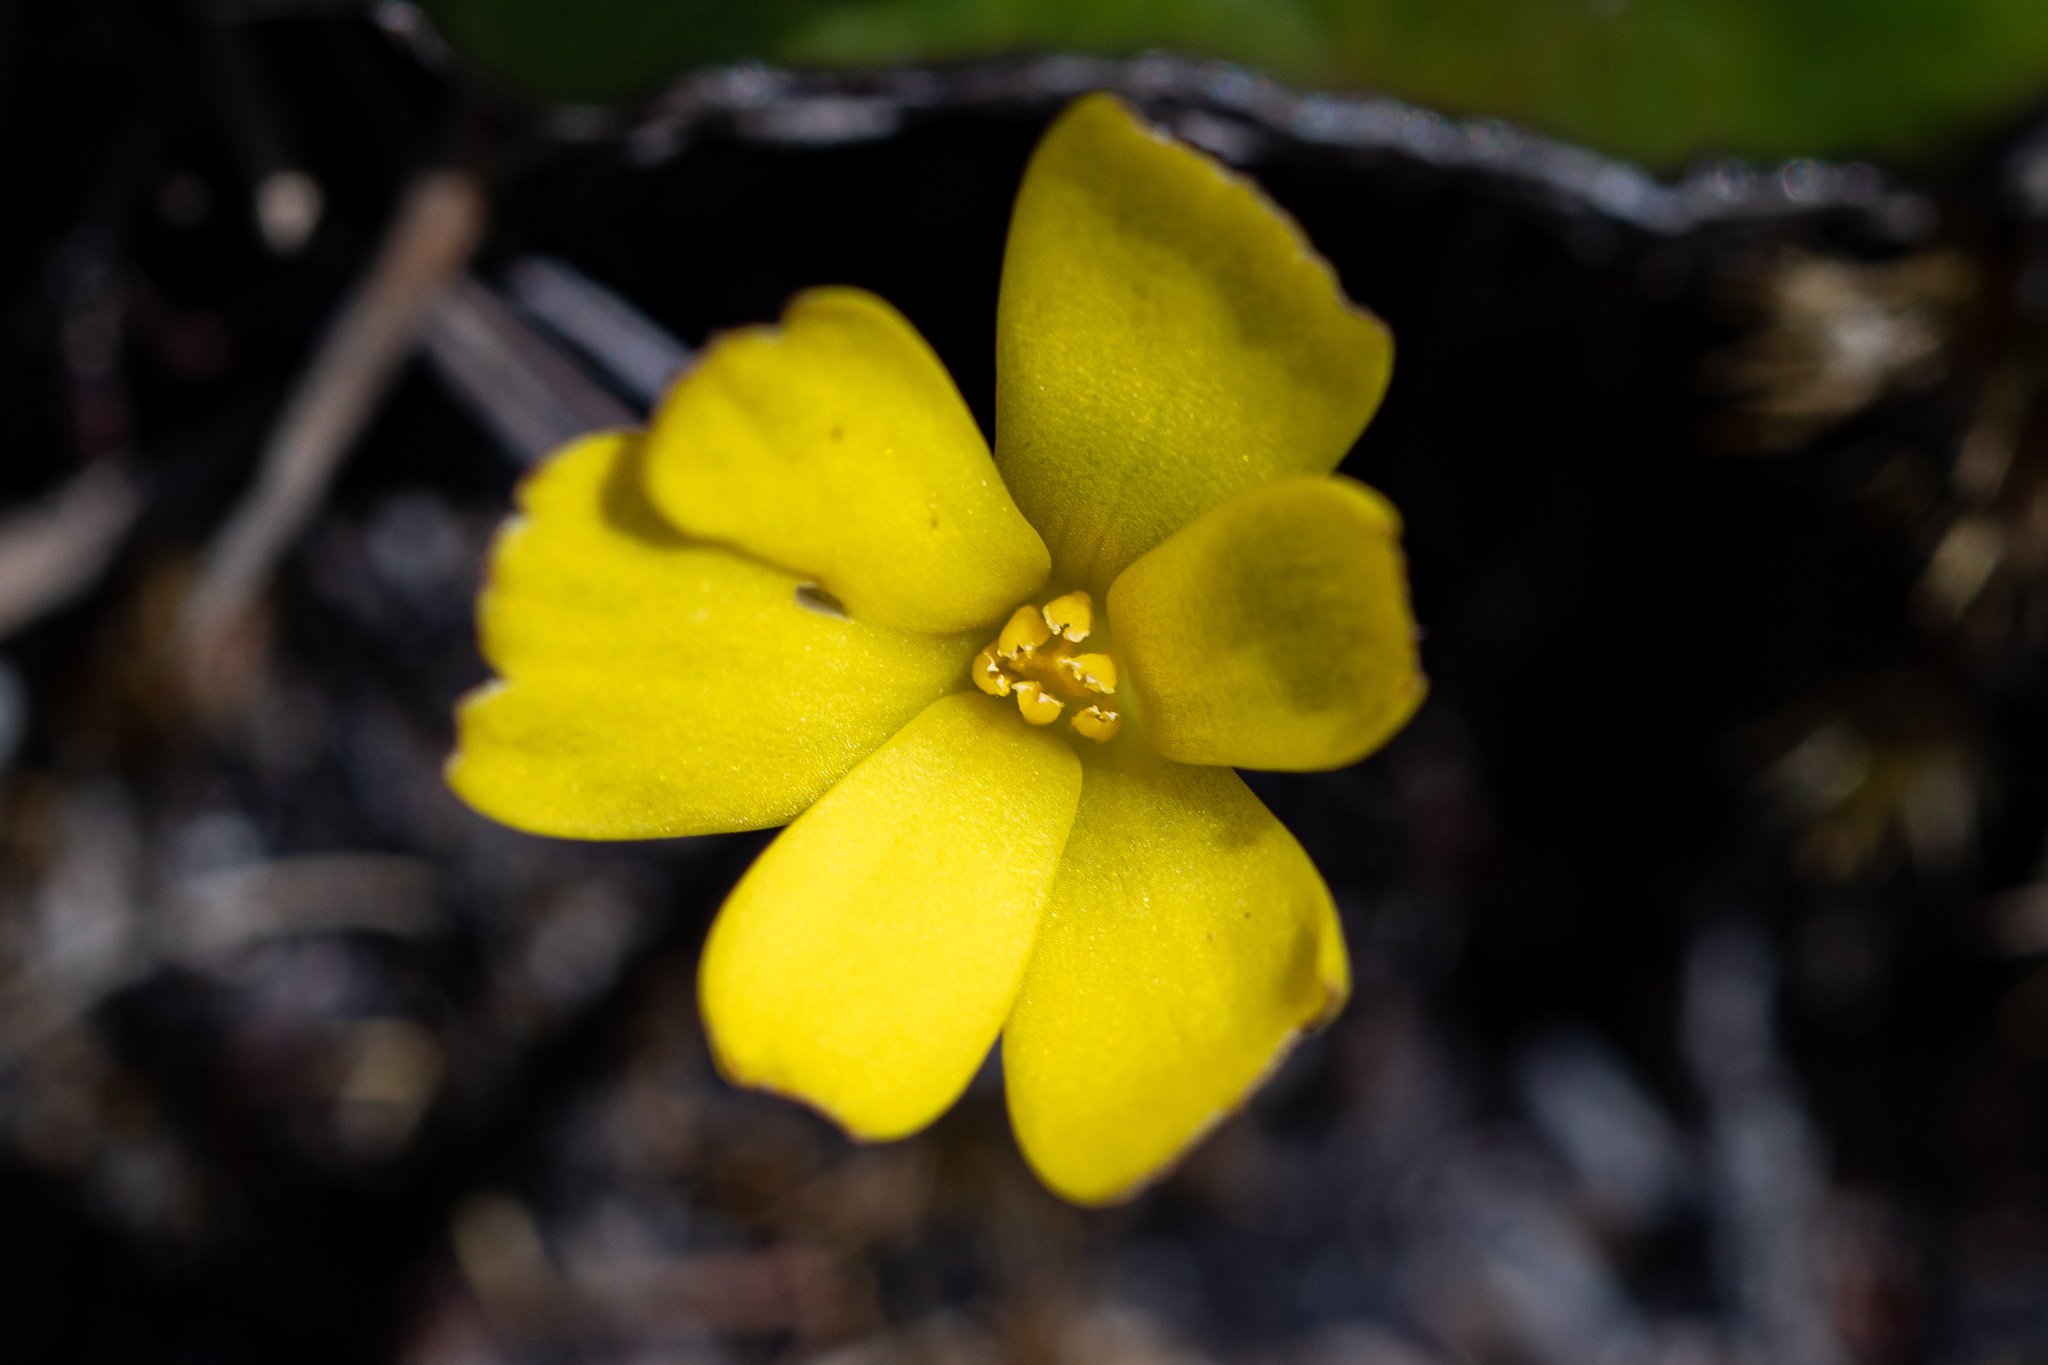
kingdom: Plantae
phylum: Tracheophyta
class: Liliopsida
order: Asparagales
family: Hypoxidaceae
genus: Pauridia
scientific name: Pauridia monophylla
